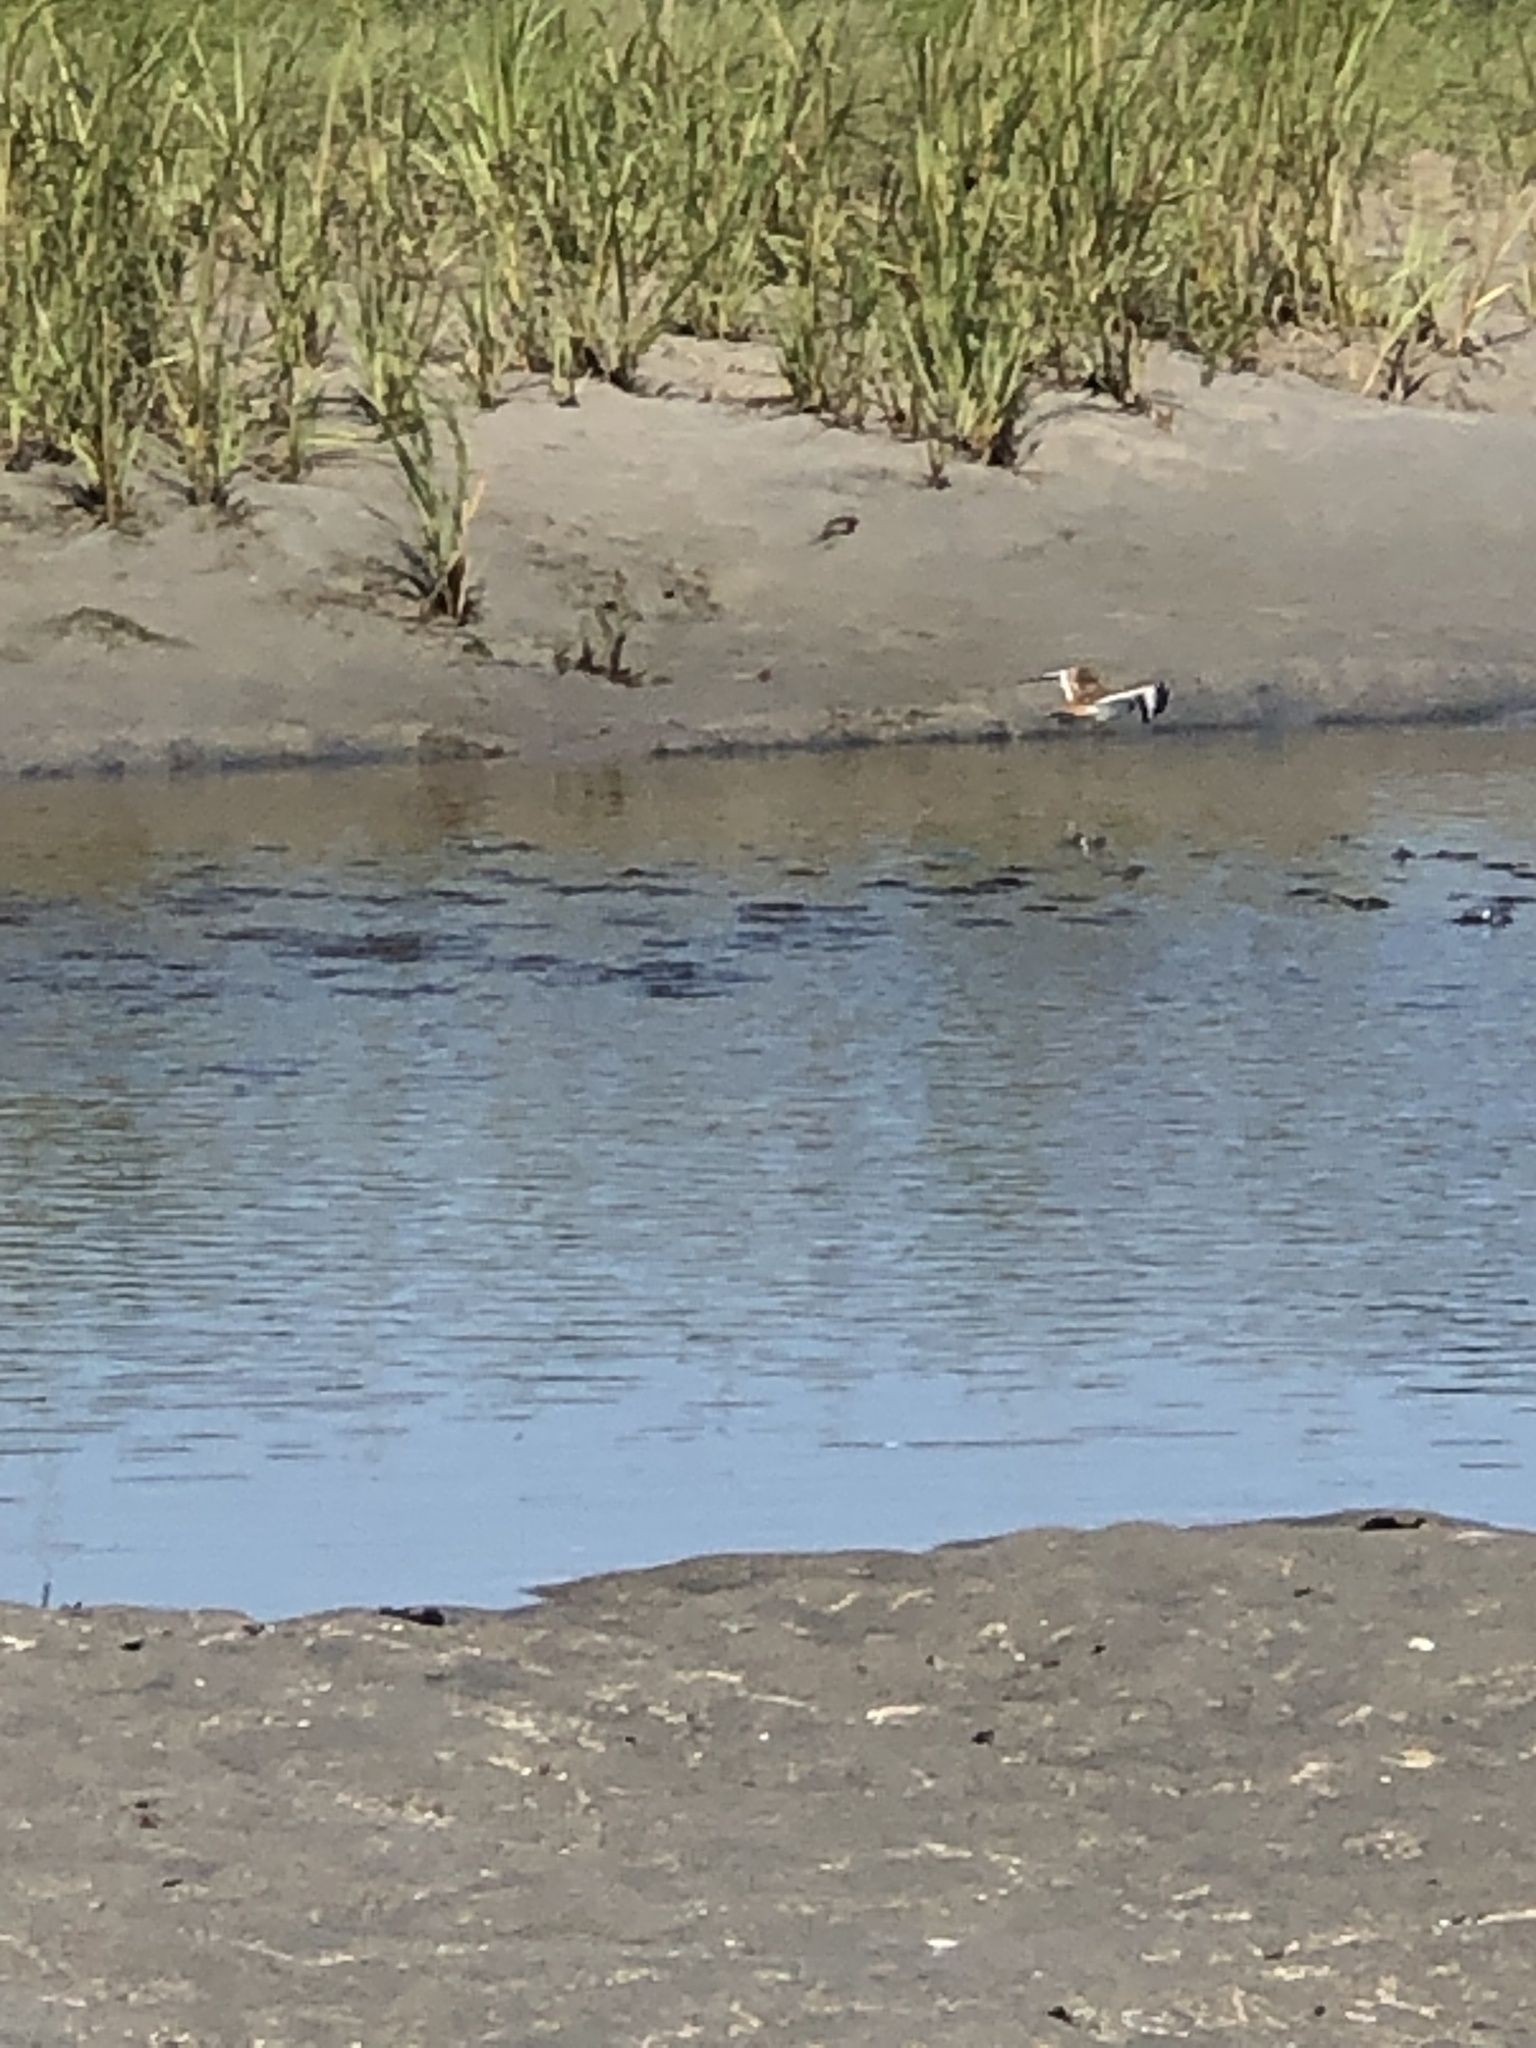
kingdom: Animalia
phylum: Chordata
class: Aves
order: Charadriiformes
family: Charadriidae
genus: Charadrius
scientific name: Charadrius vociferus
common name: Killdeer
